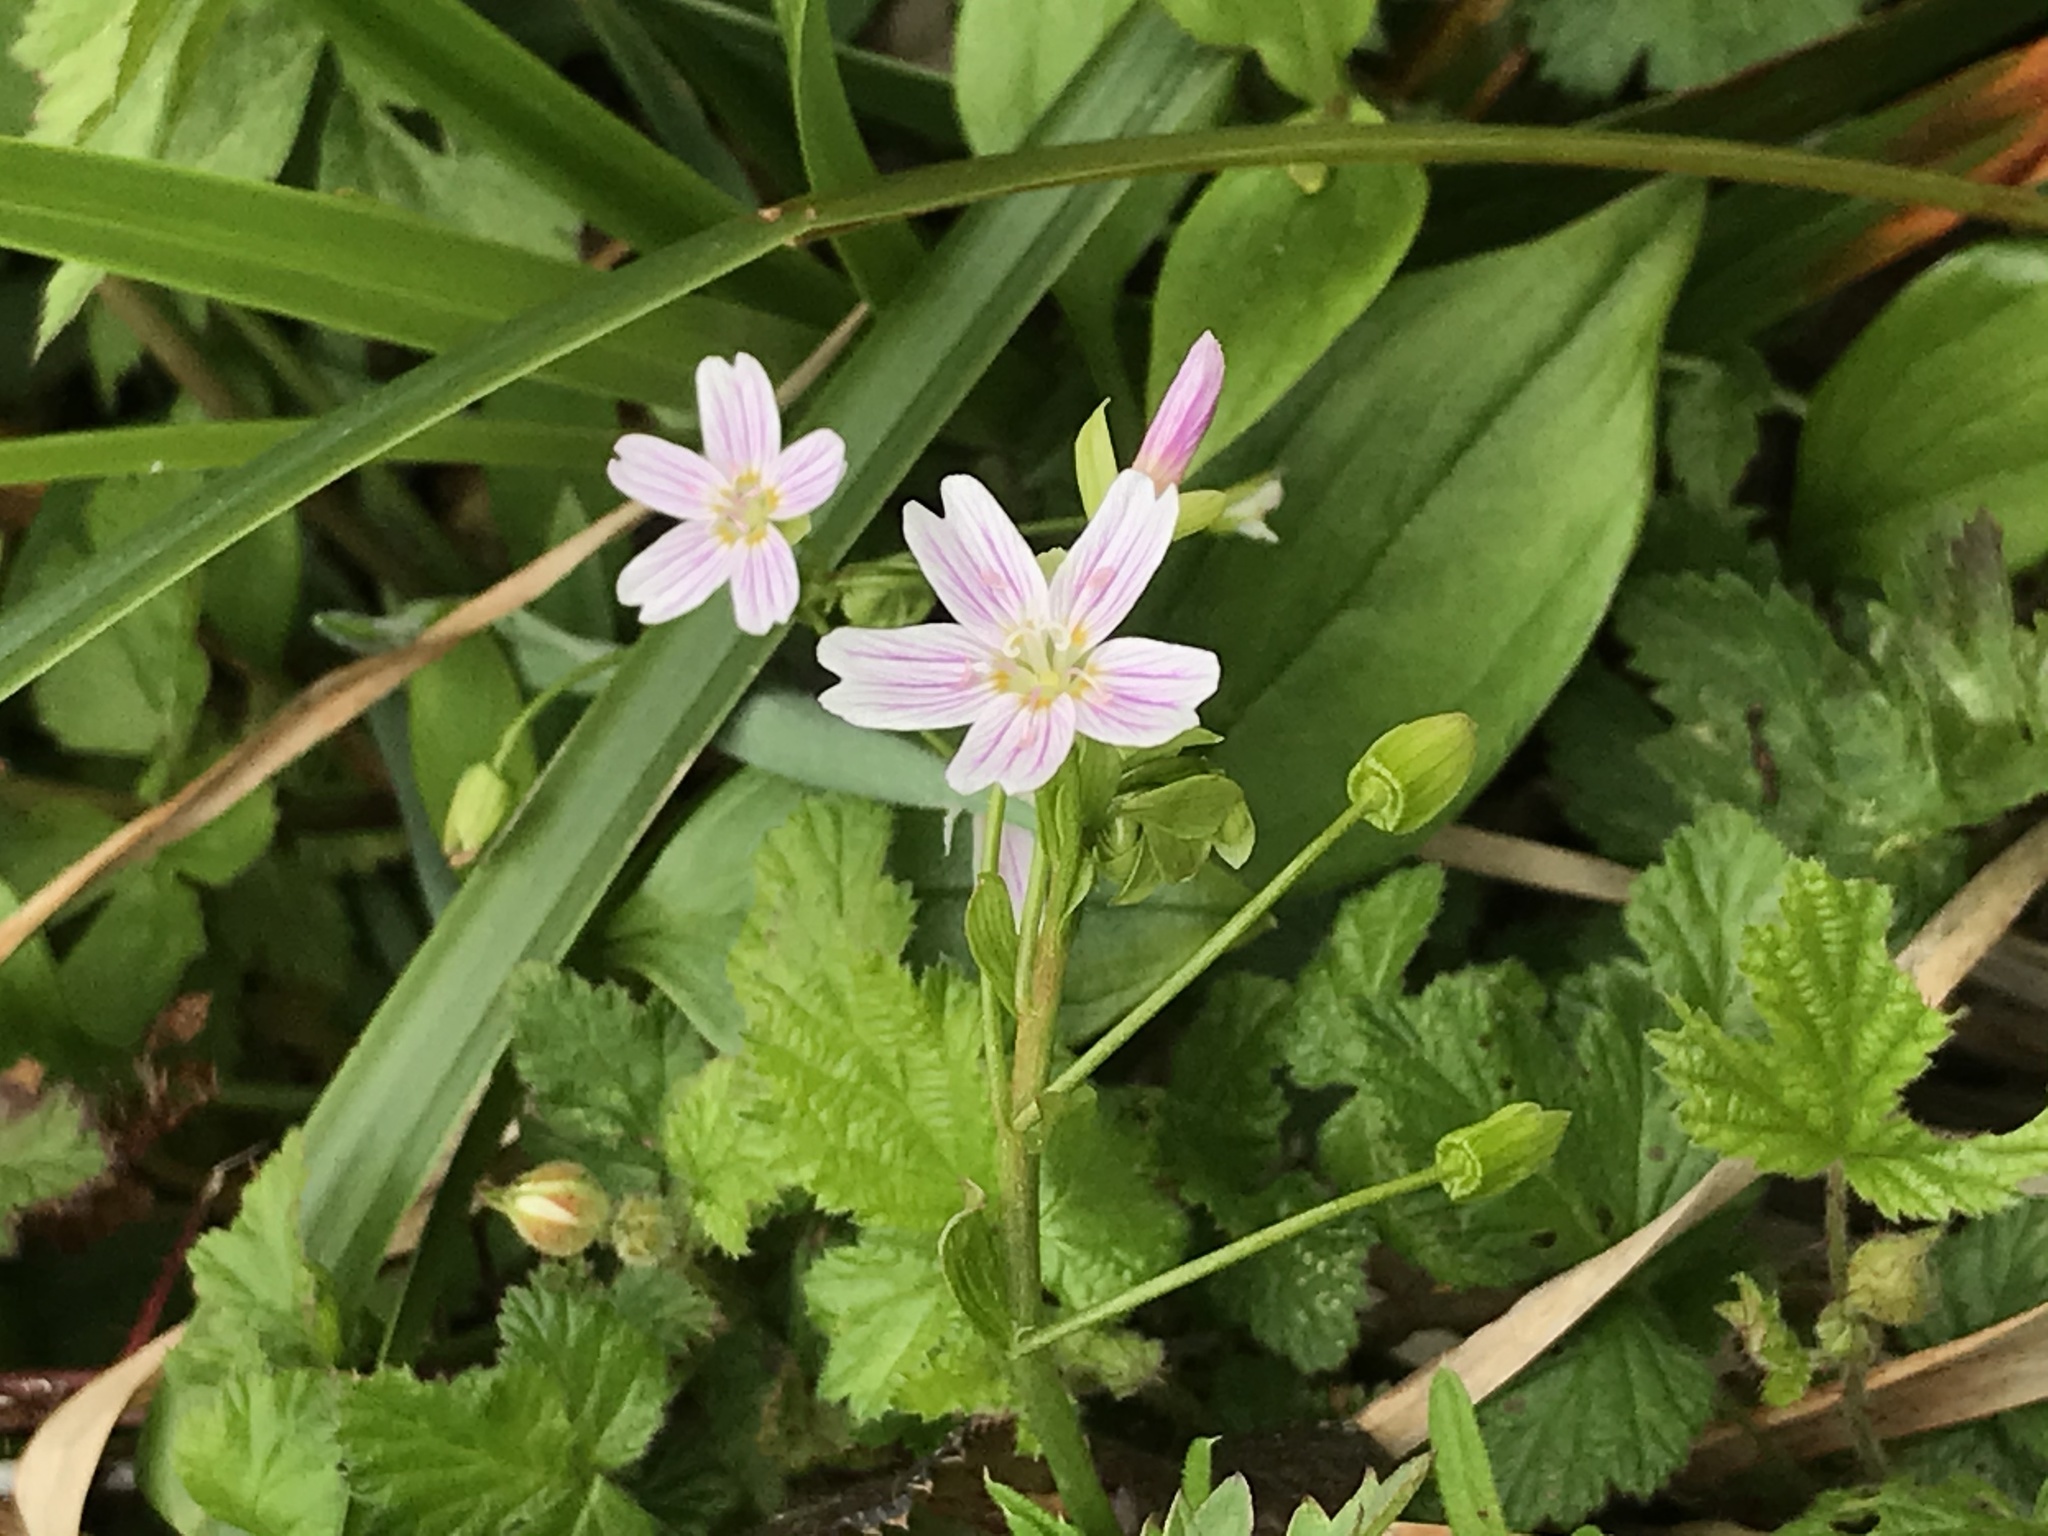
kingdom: Plantae
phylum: Tracheophyta
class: Magnoliopsida
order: Caryophyllales
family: Montiaceae
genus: Claytonia
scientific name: Claytonia sibirica
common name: Pink purslane
